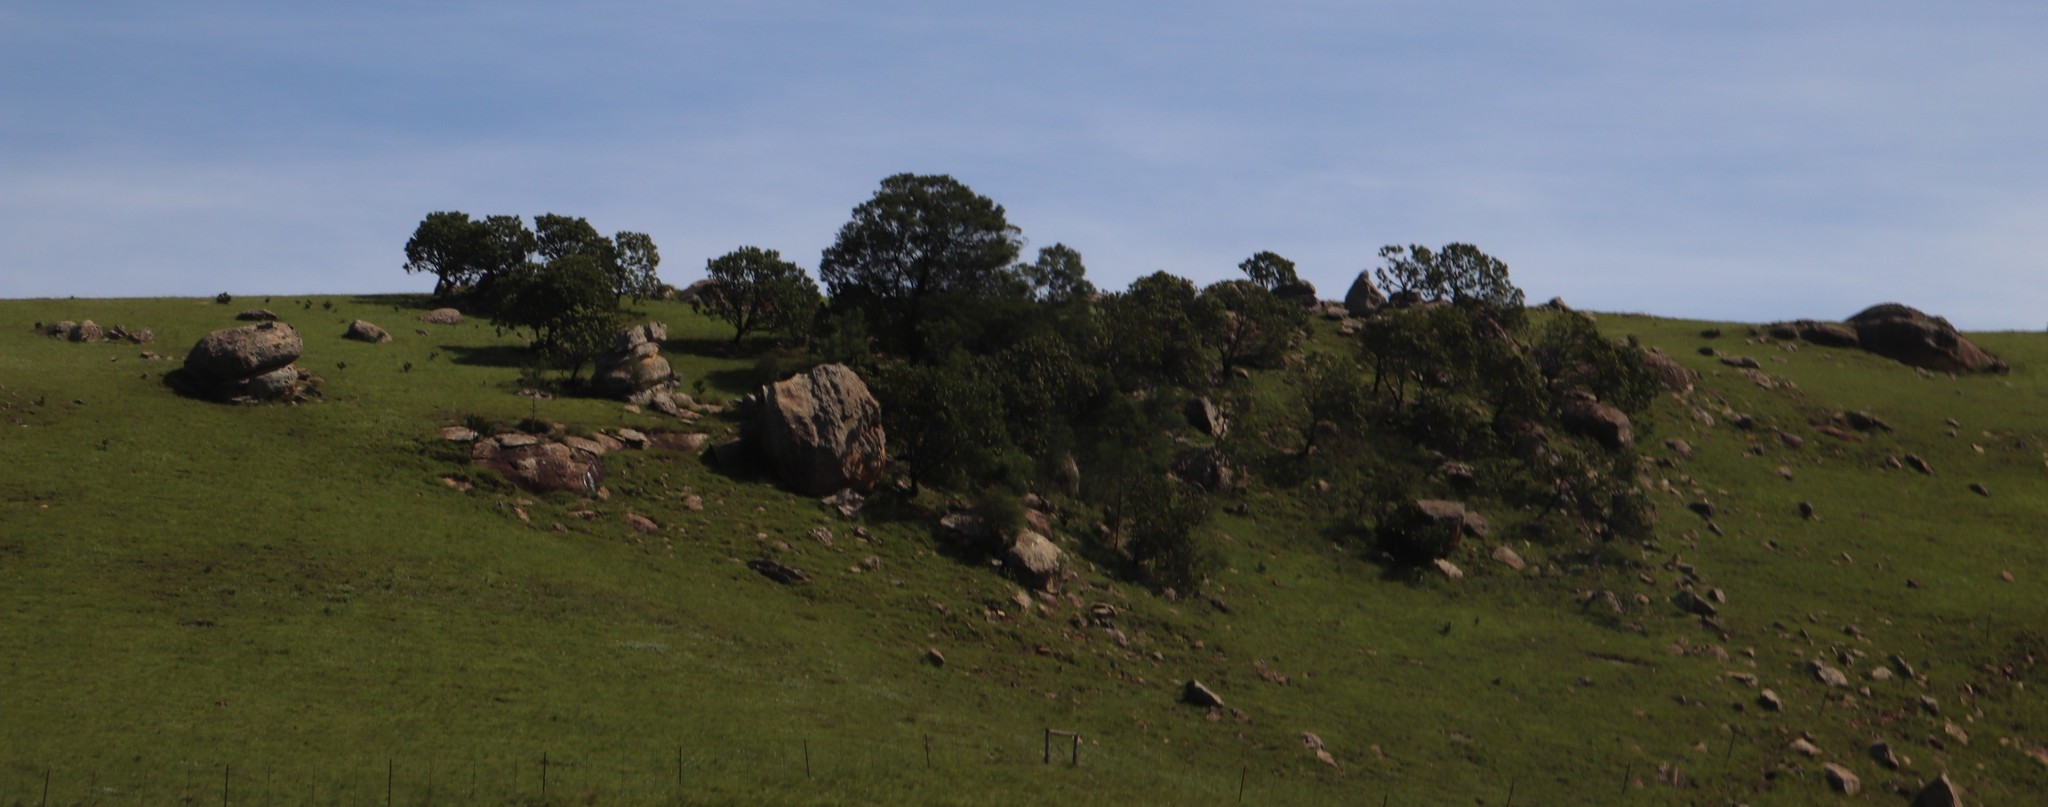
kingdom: Plantae
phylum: Tracheophyta
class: Magnoliopsida
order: Proteales
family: Proteaceae
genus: Protea
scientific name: Protea roupelliae
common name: Silver sugarbush
